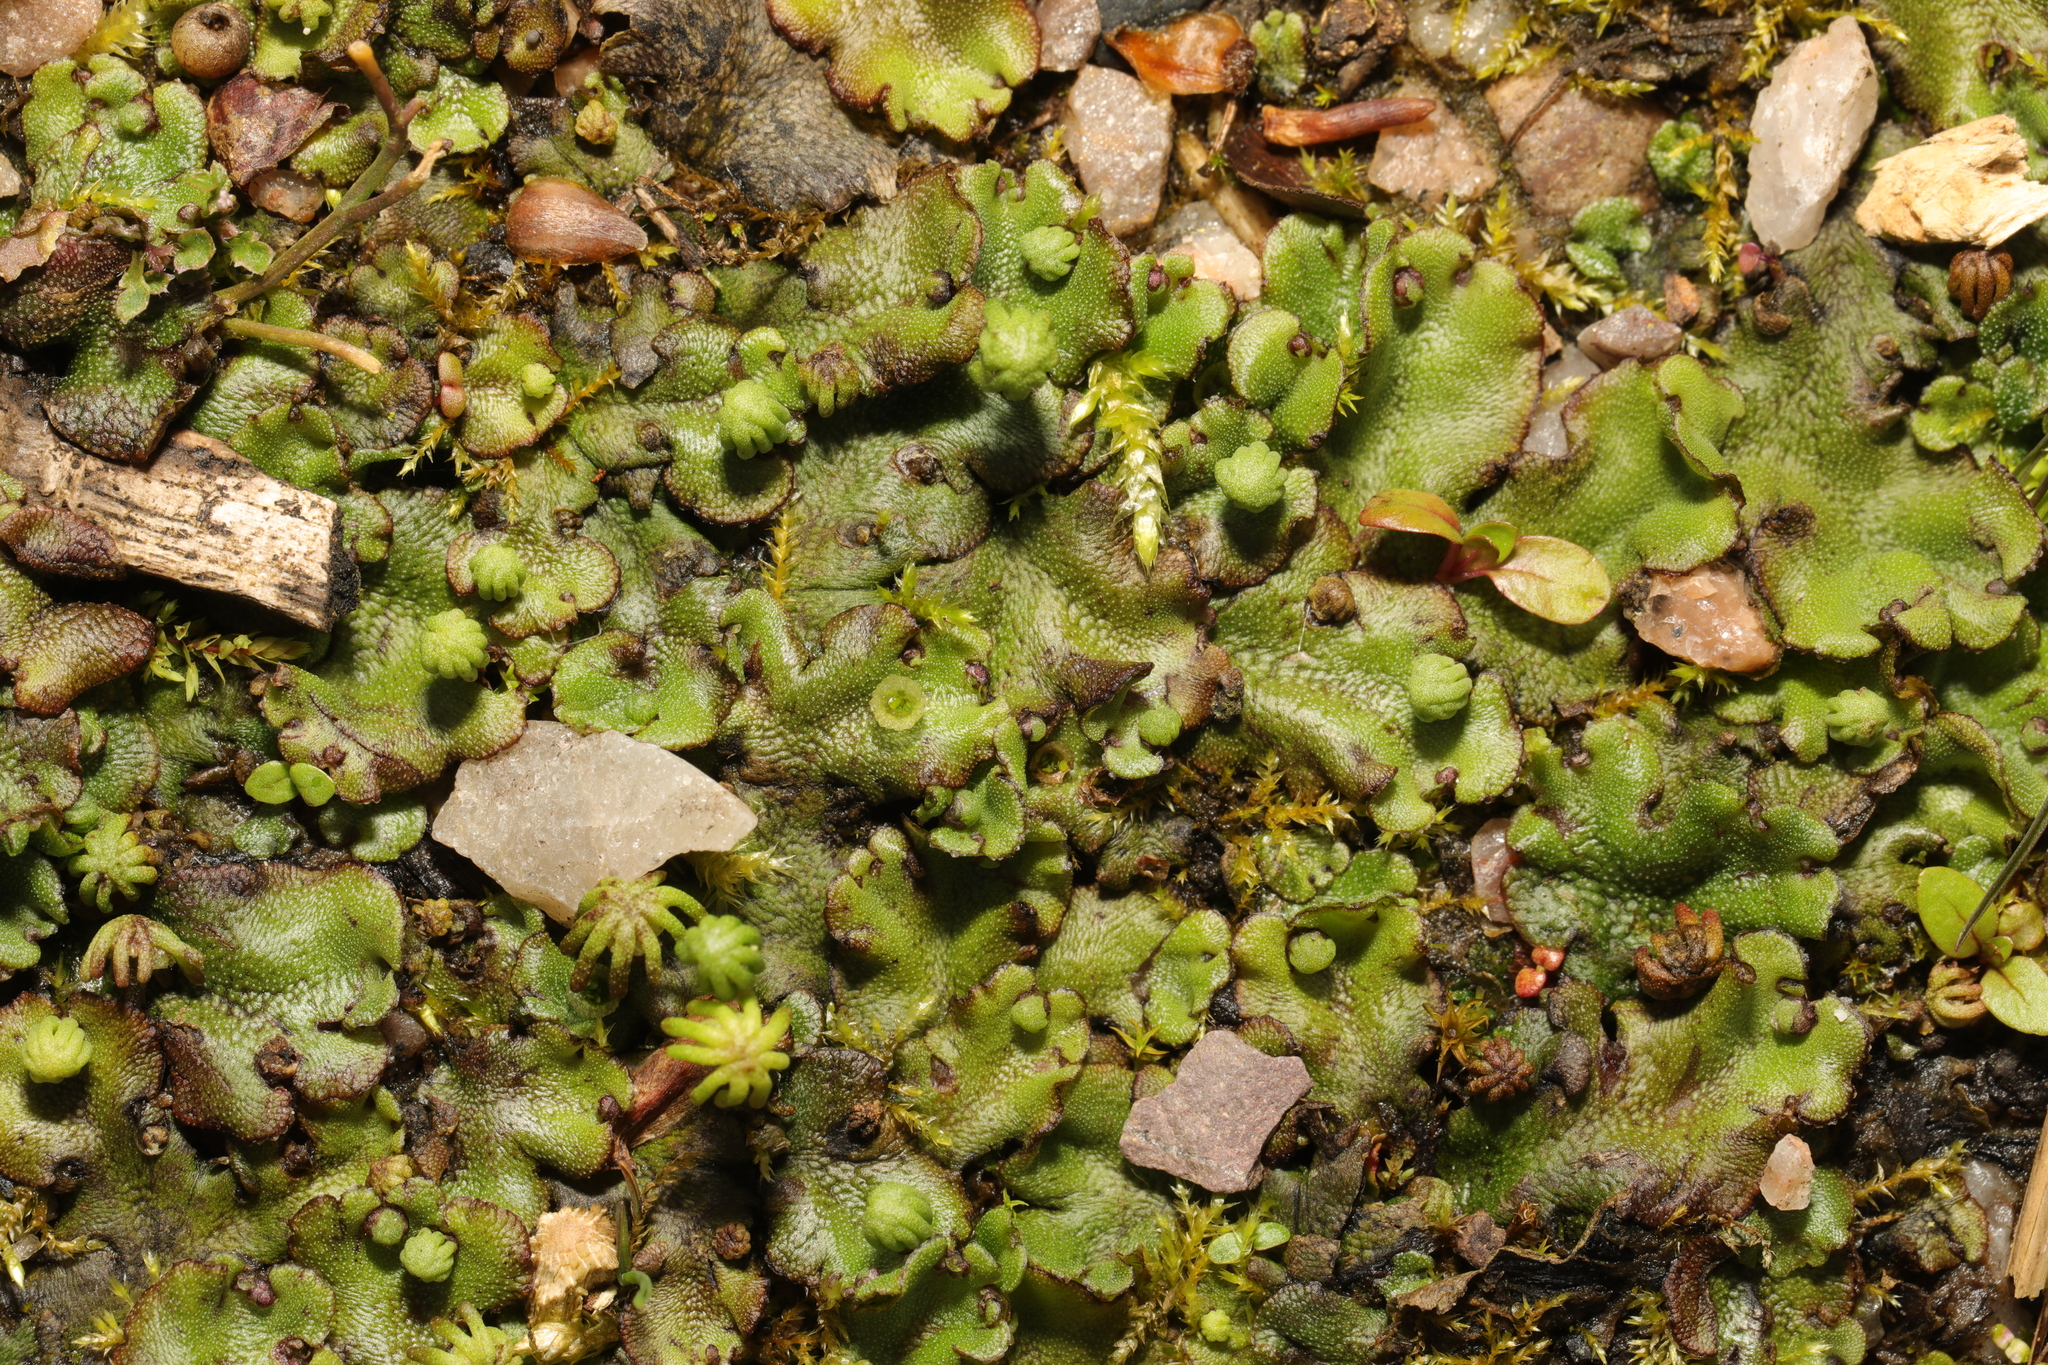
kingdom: Plantae
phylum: Marchantiophyta
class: Marchantiopsida
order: Marchantiales
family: Marchantiaceae
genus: Marchantia
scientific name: Marchantia polymorpha
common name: Common liverwort
